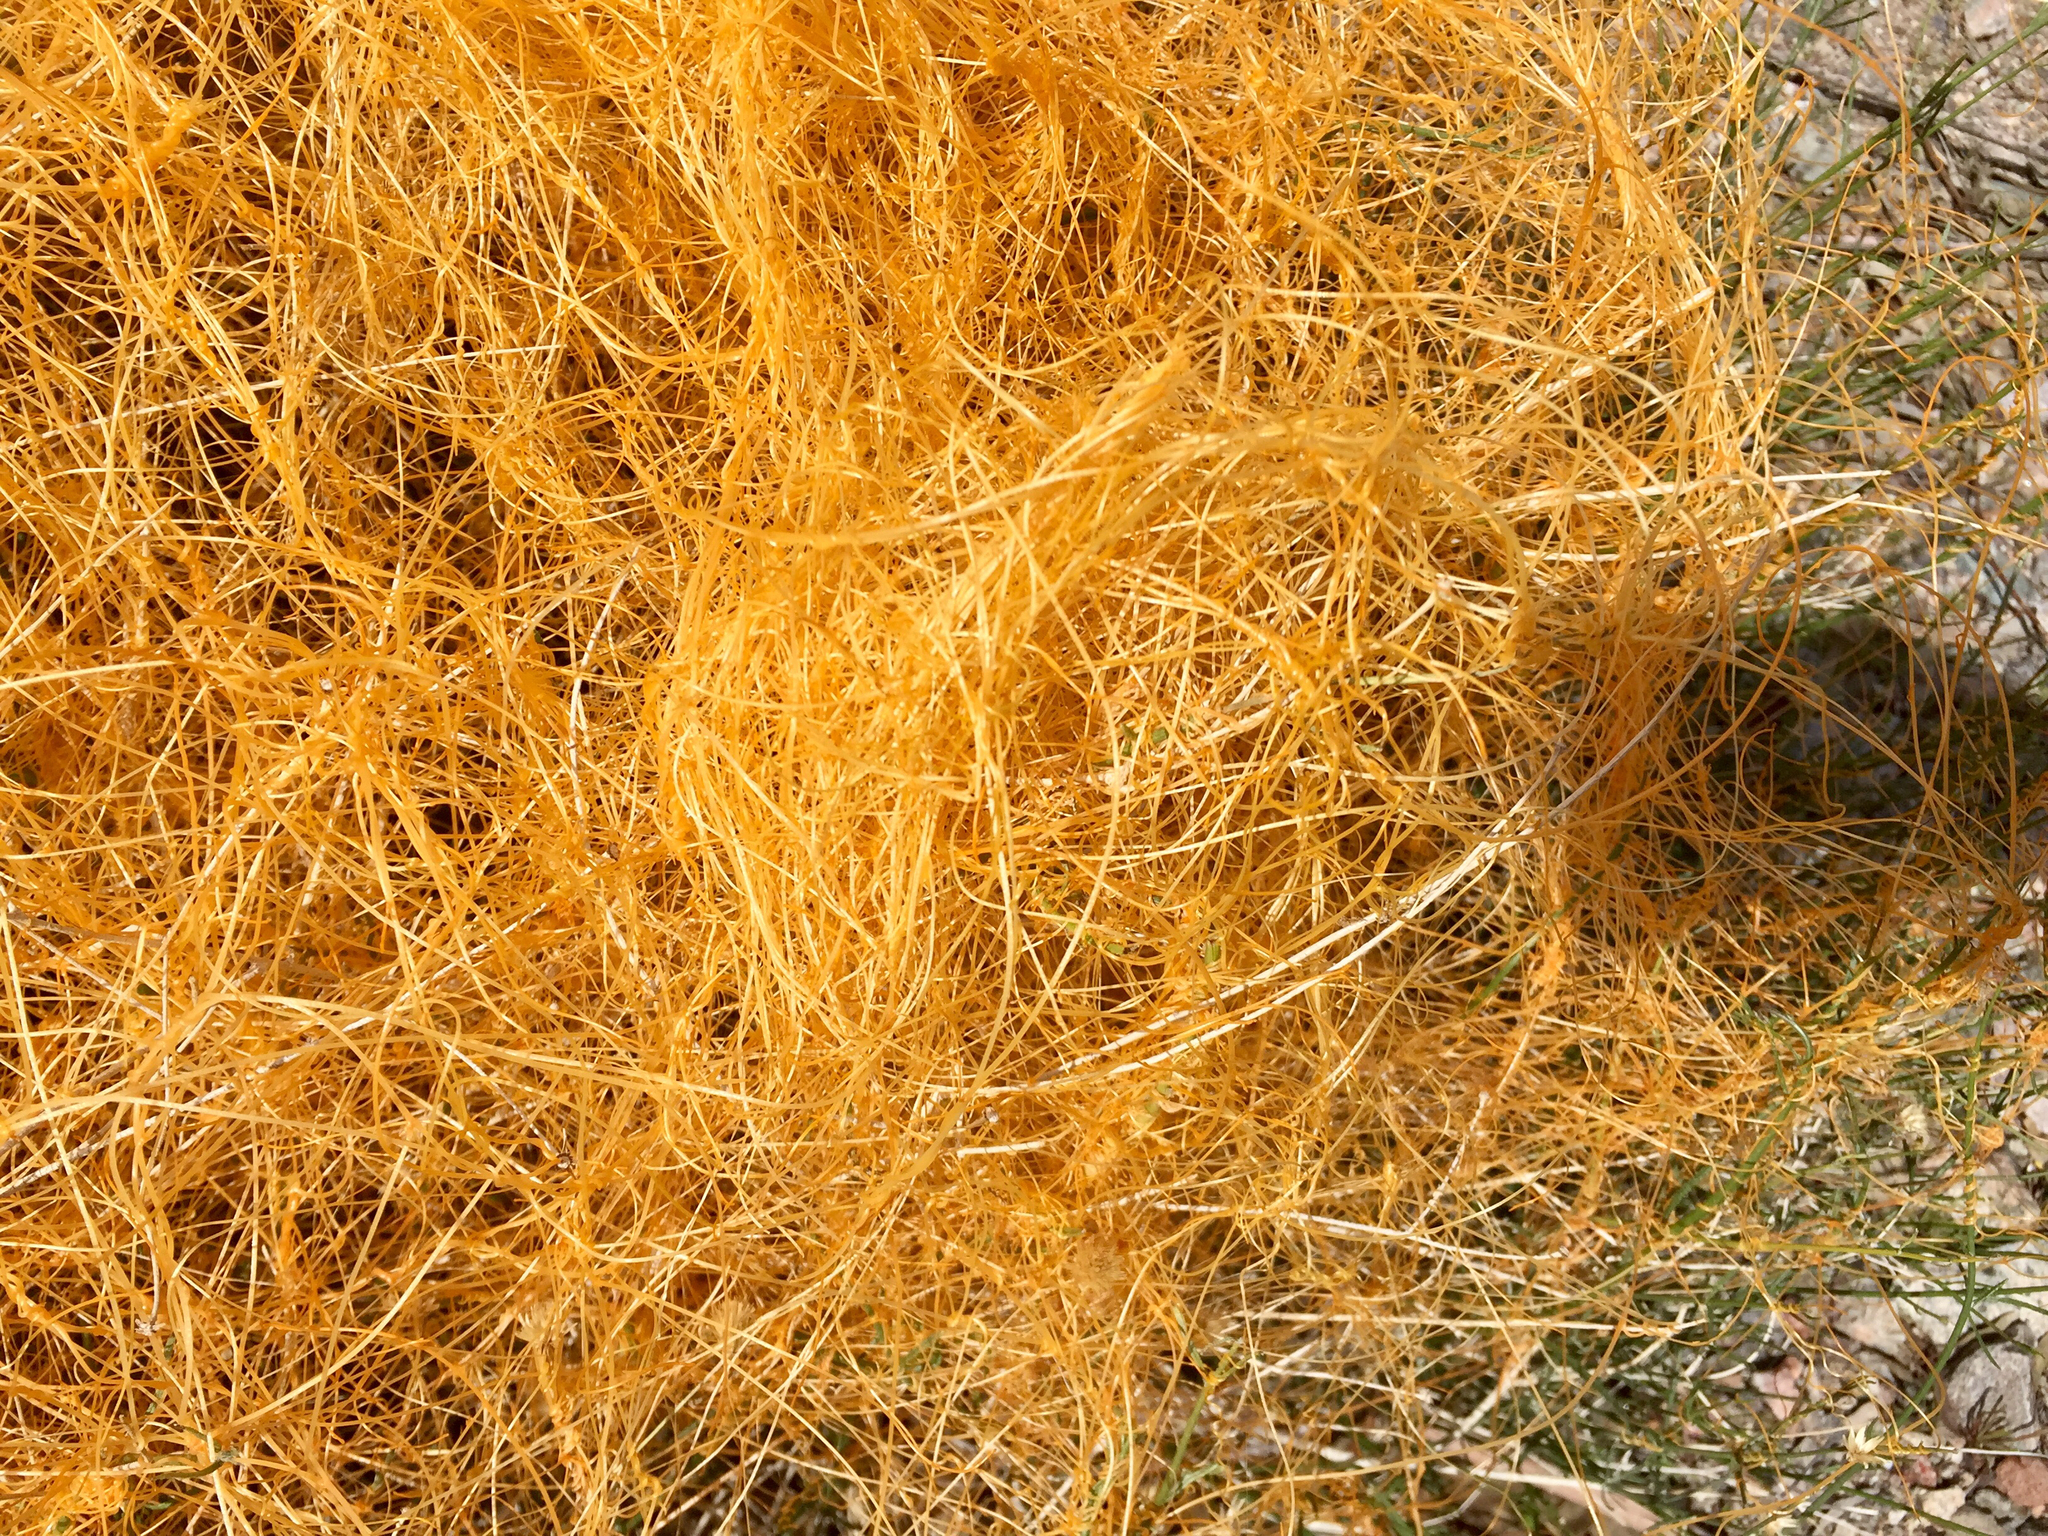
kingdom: Plantae
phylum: Tracheophyta
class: Magnoliopsida
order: Solanales
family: Convolvulaceae
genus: Cuscuta
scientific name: Cuscuta denticulata
